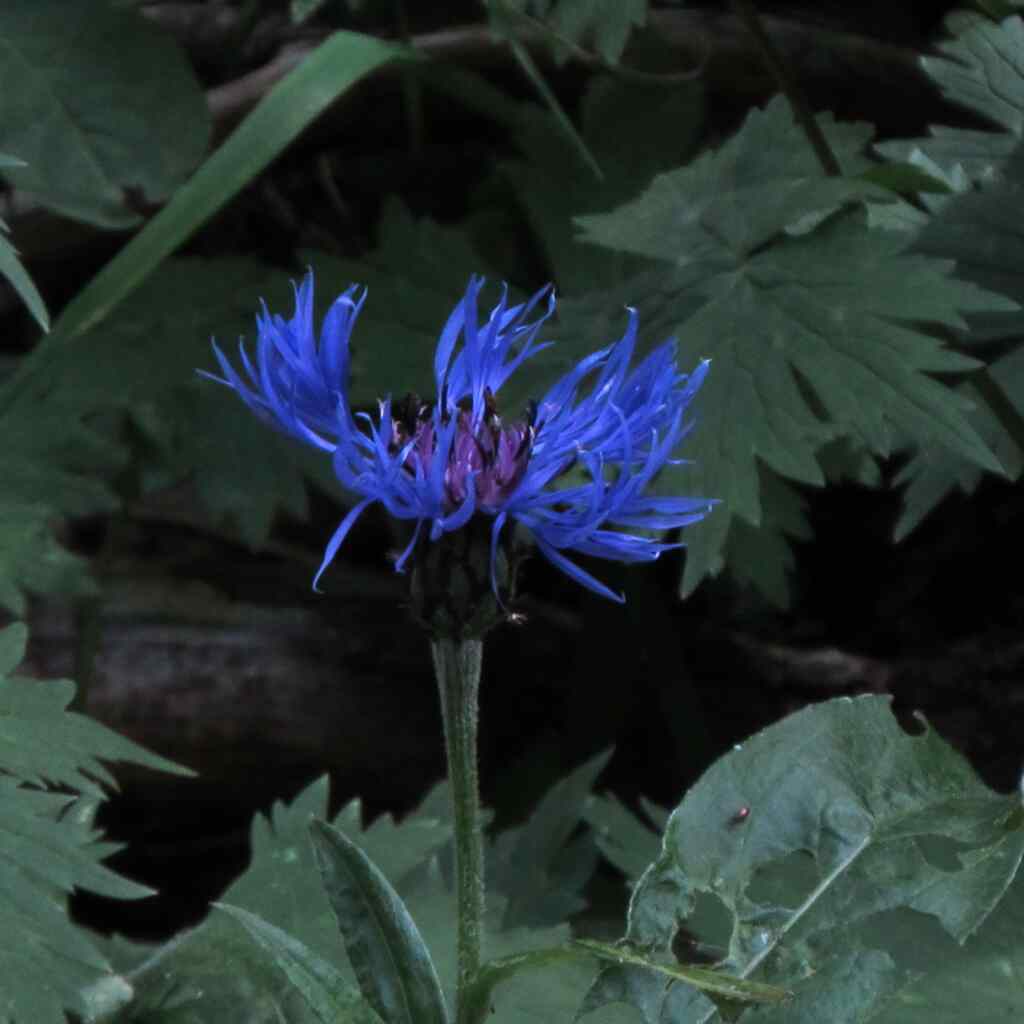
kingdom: Plantae
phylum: Tracheophyta
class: Magnoliopsida
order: Asterales
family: Asteraceae
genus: Centaurea
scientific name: Centaurea montana
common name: Perennial cornflower
